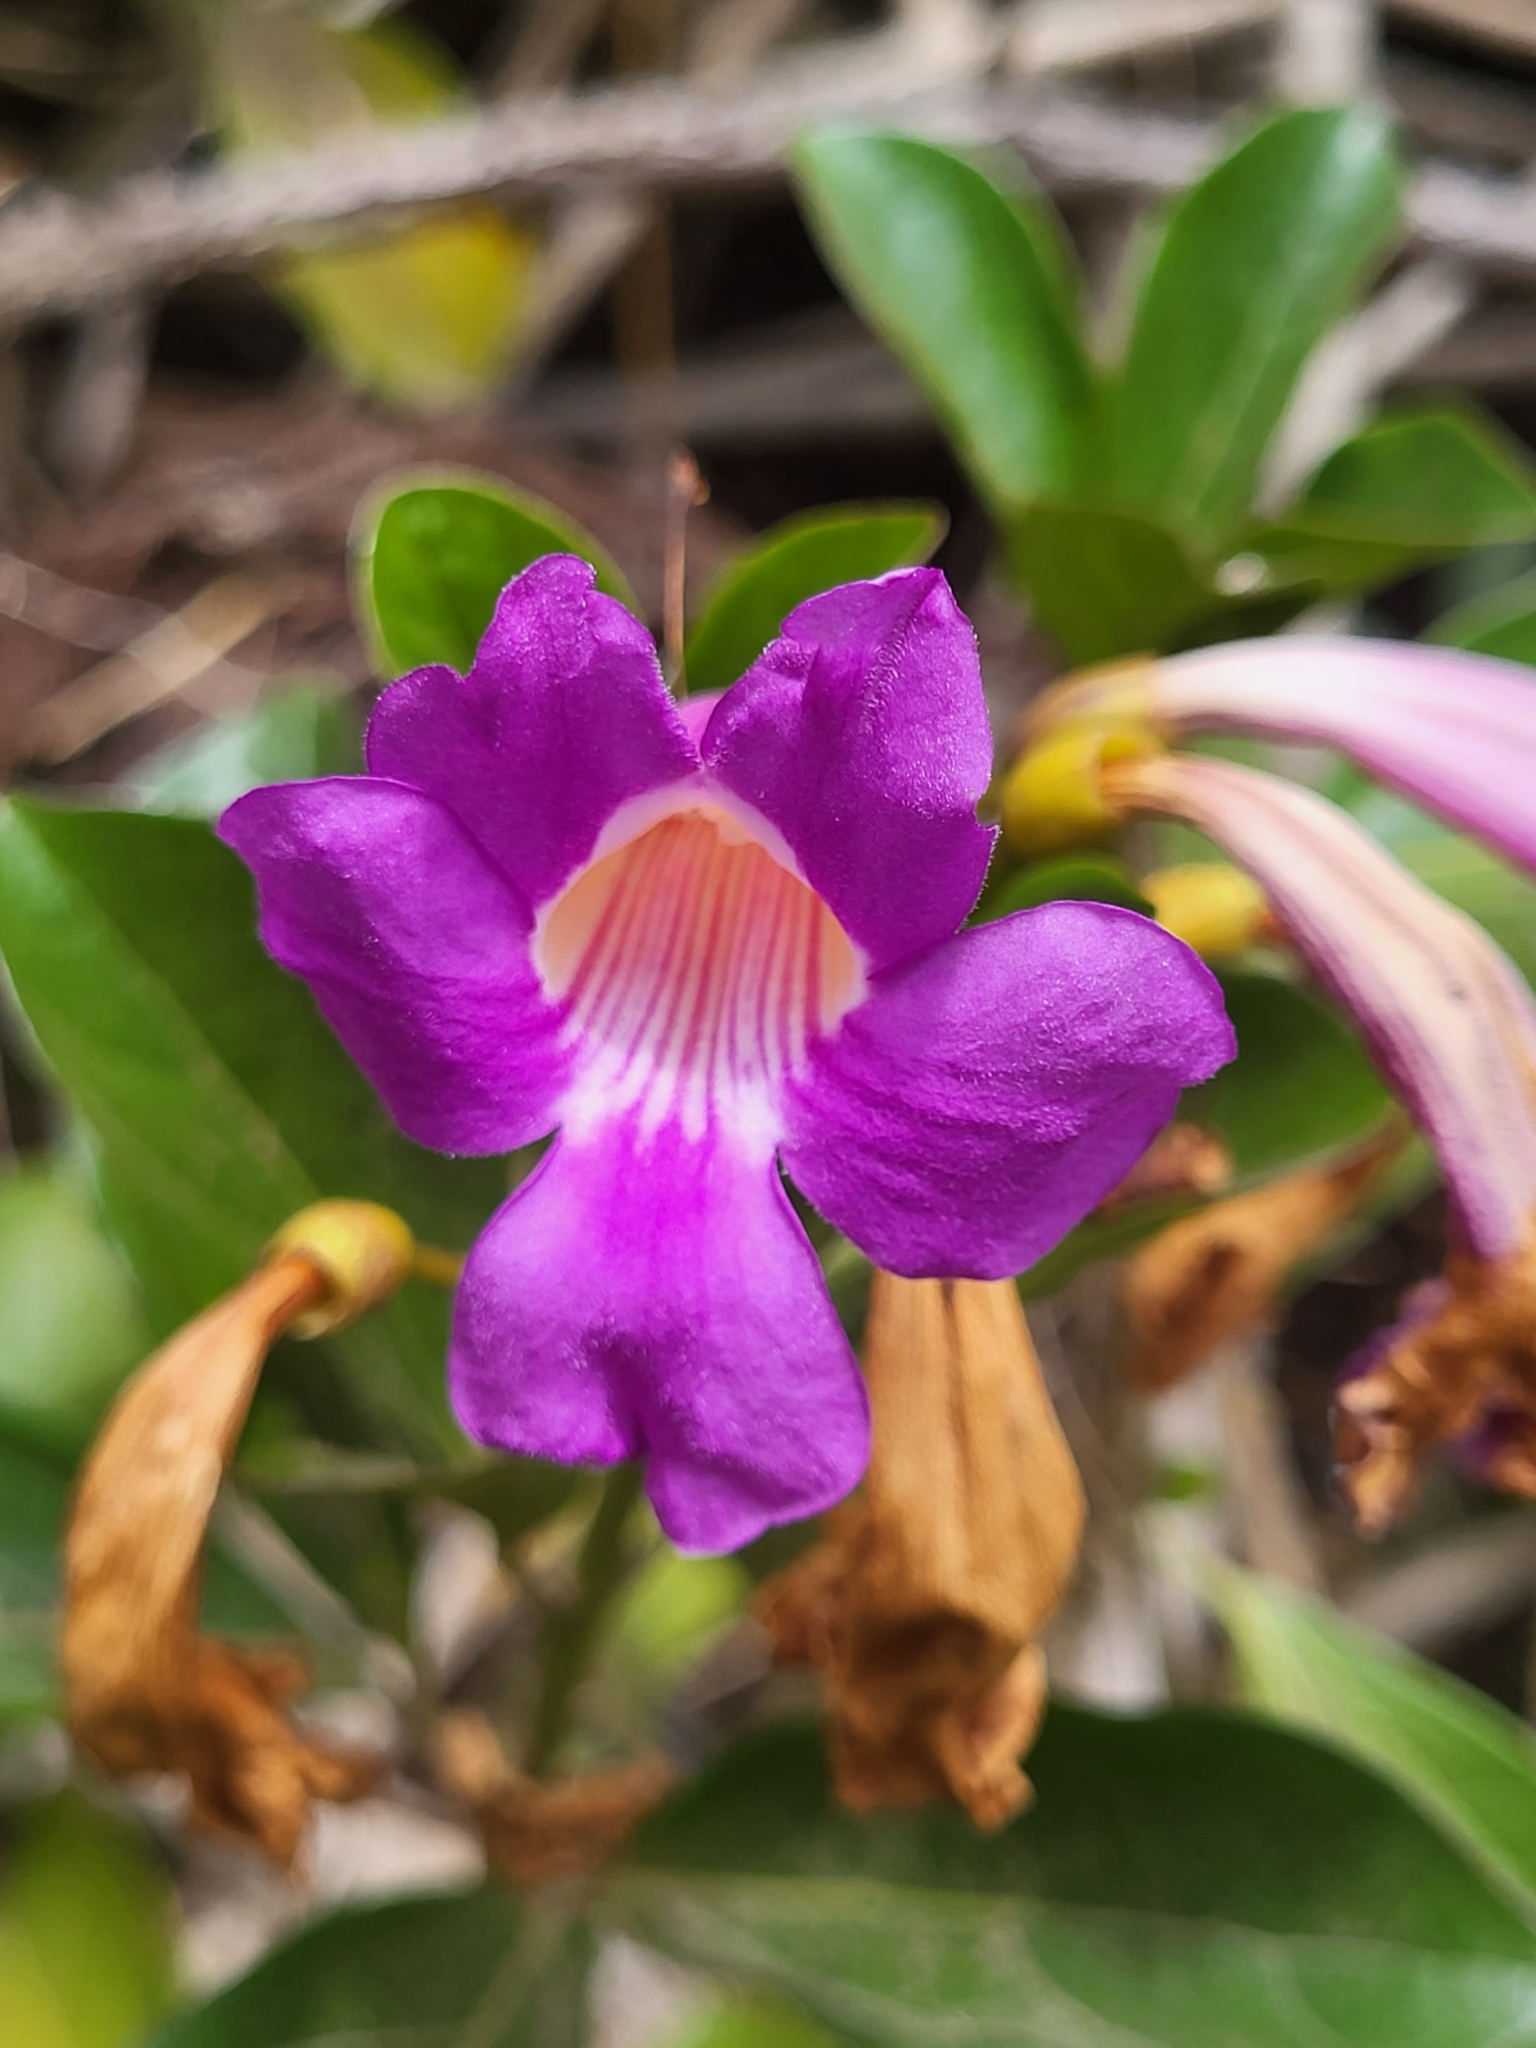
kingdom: Plantae
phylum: Tracheophyta
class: Magnoliopsida
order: Lamiales
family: Bignoniaceae
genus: Bignonia
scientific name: Bignonia magnifica
